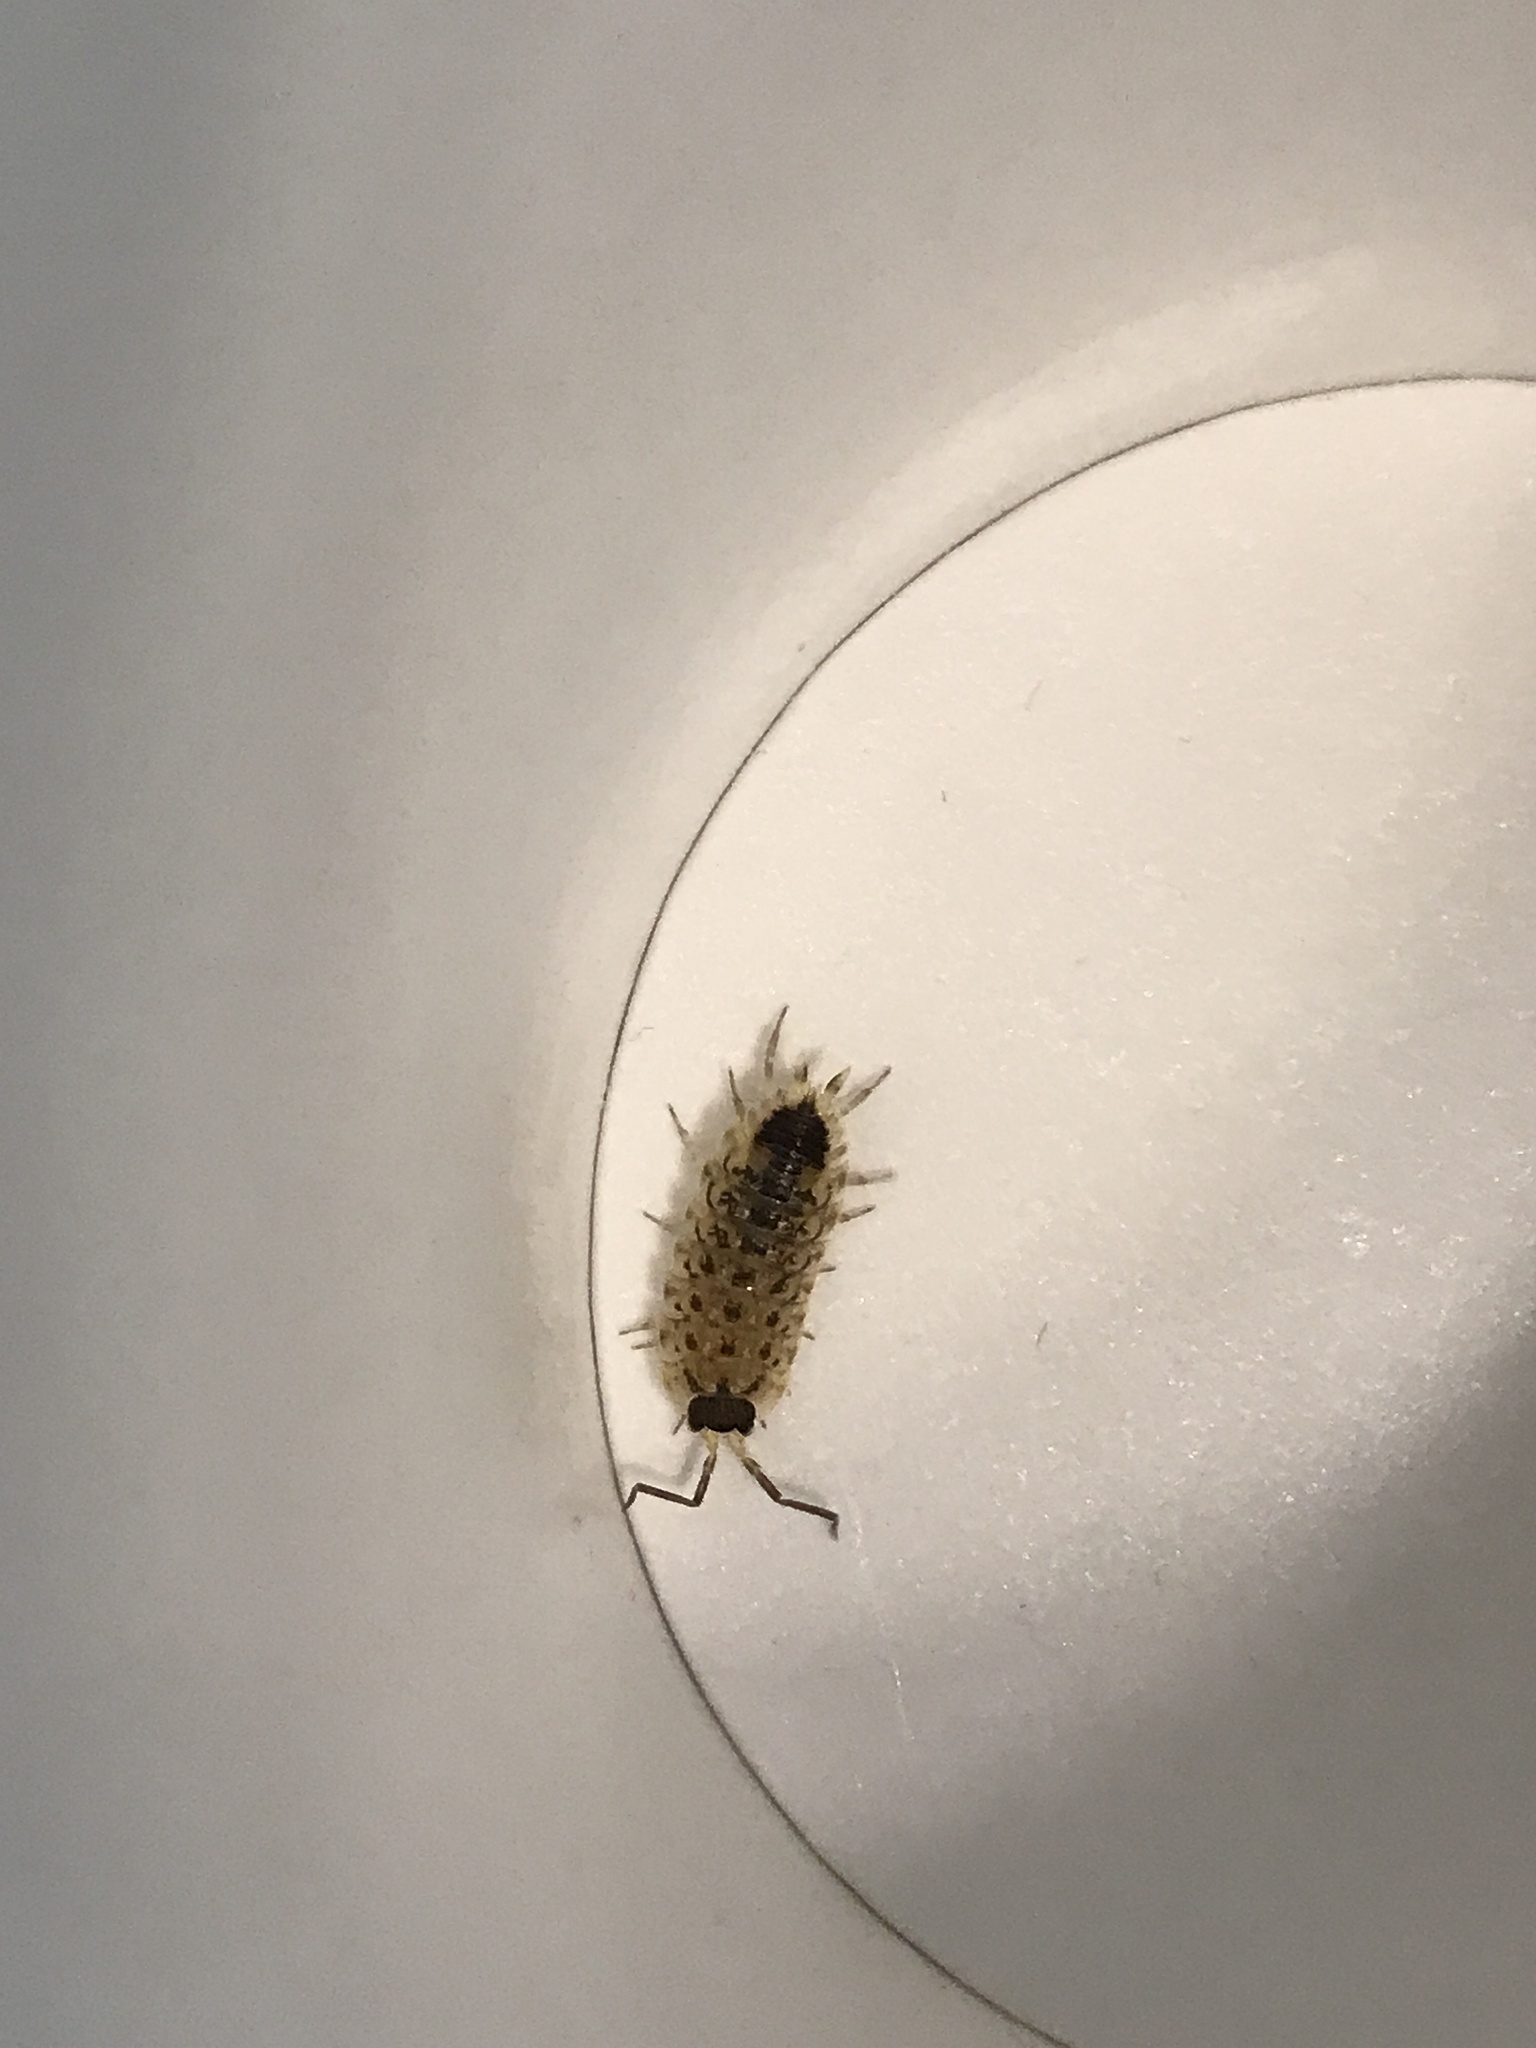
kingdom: Animalia
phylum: Arthropoda
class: Malacostraca
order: Isopoda
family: Porcellionidae
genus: Porcellio
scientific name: Porcellio spinicornis
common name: Painted woodlouse
